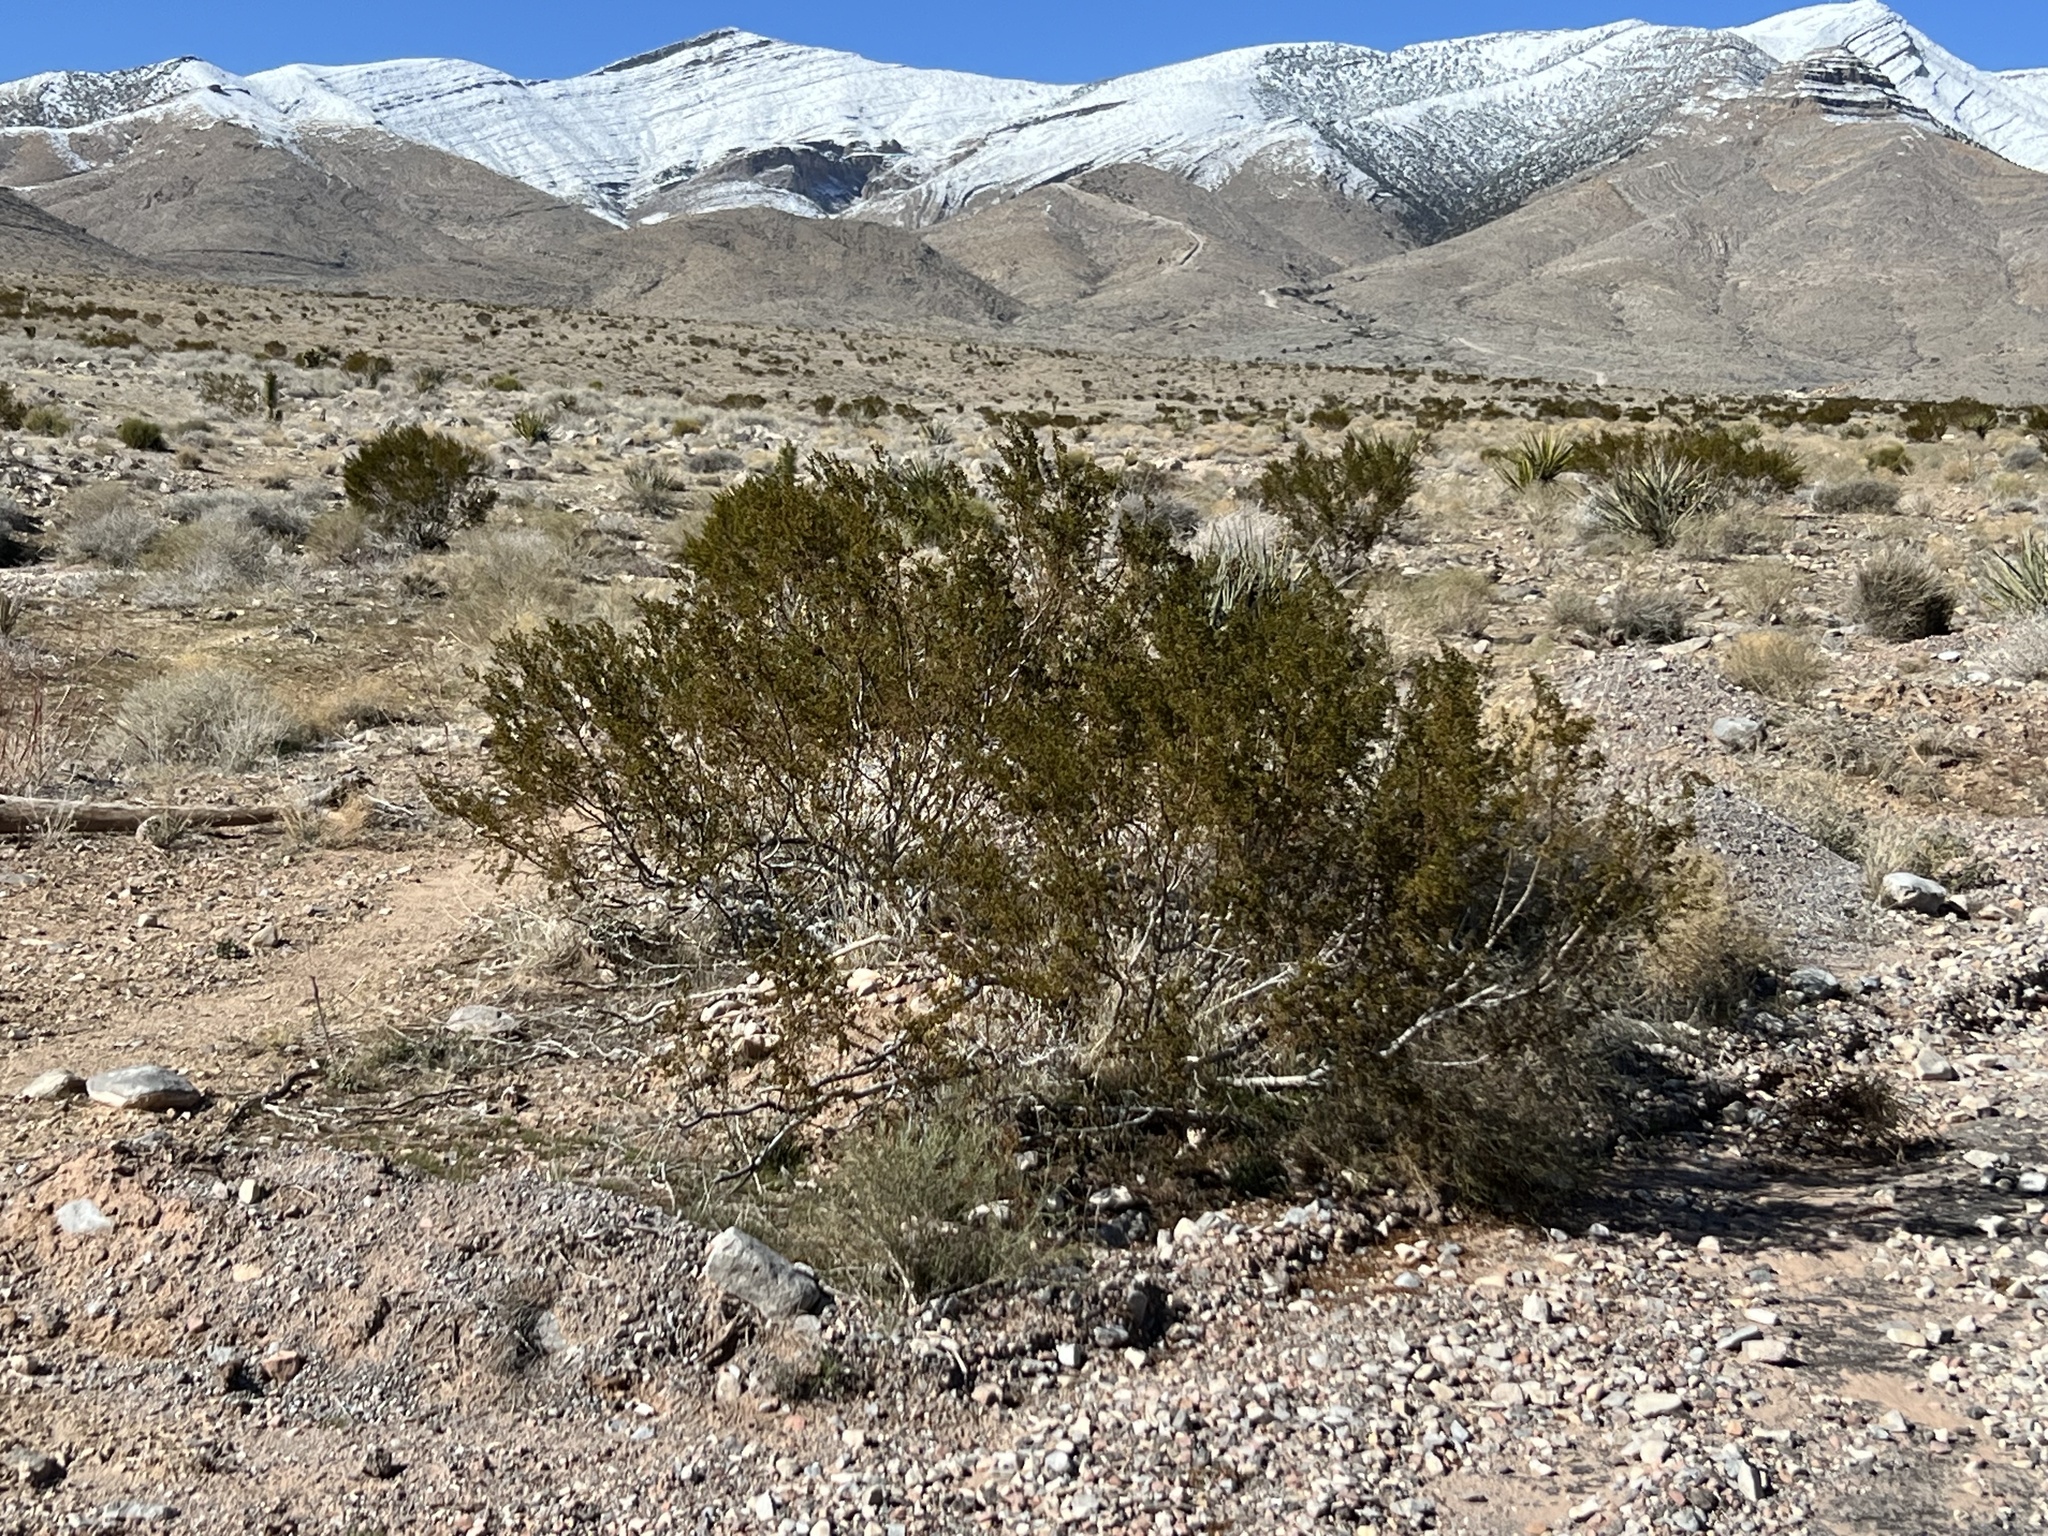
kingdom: Plantae
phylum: Tracheophyta
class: Magnoliopsida
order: Zygophyllales
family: Zygophyllaceae
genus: Larrea
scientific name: Larrea tridentata
